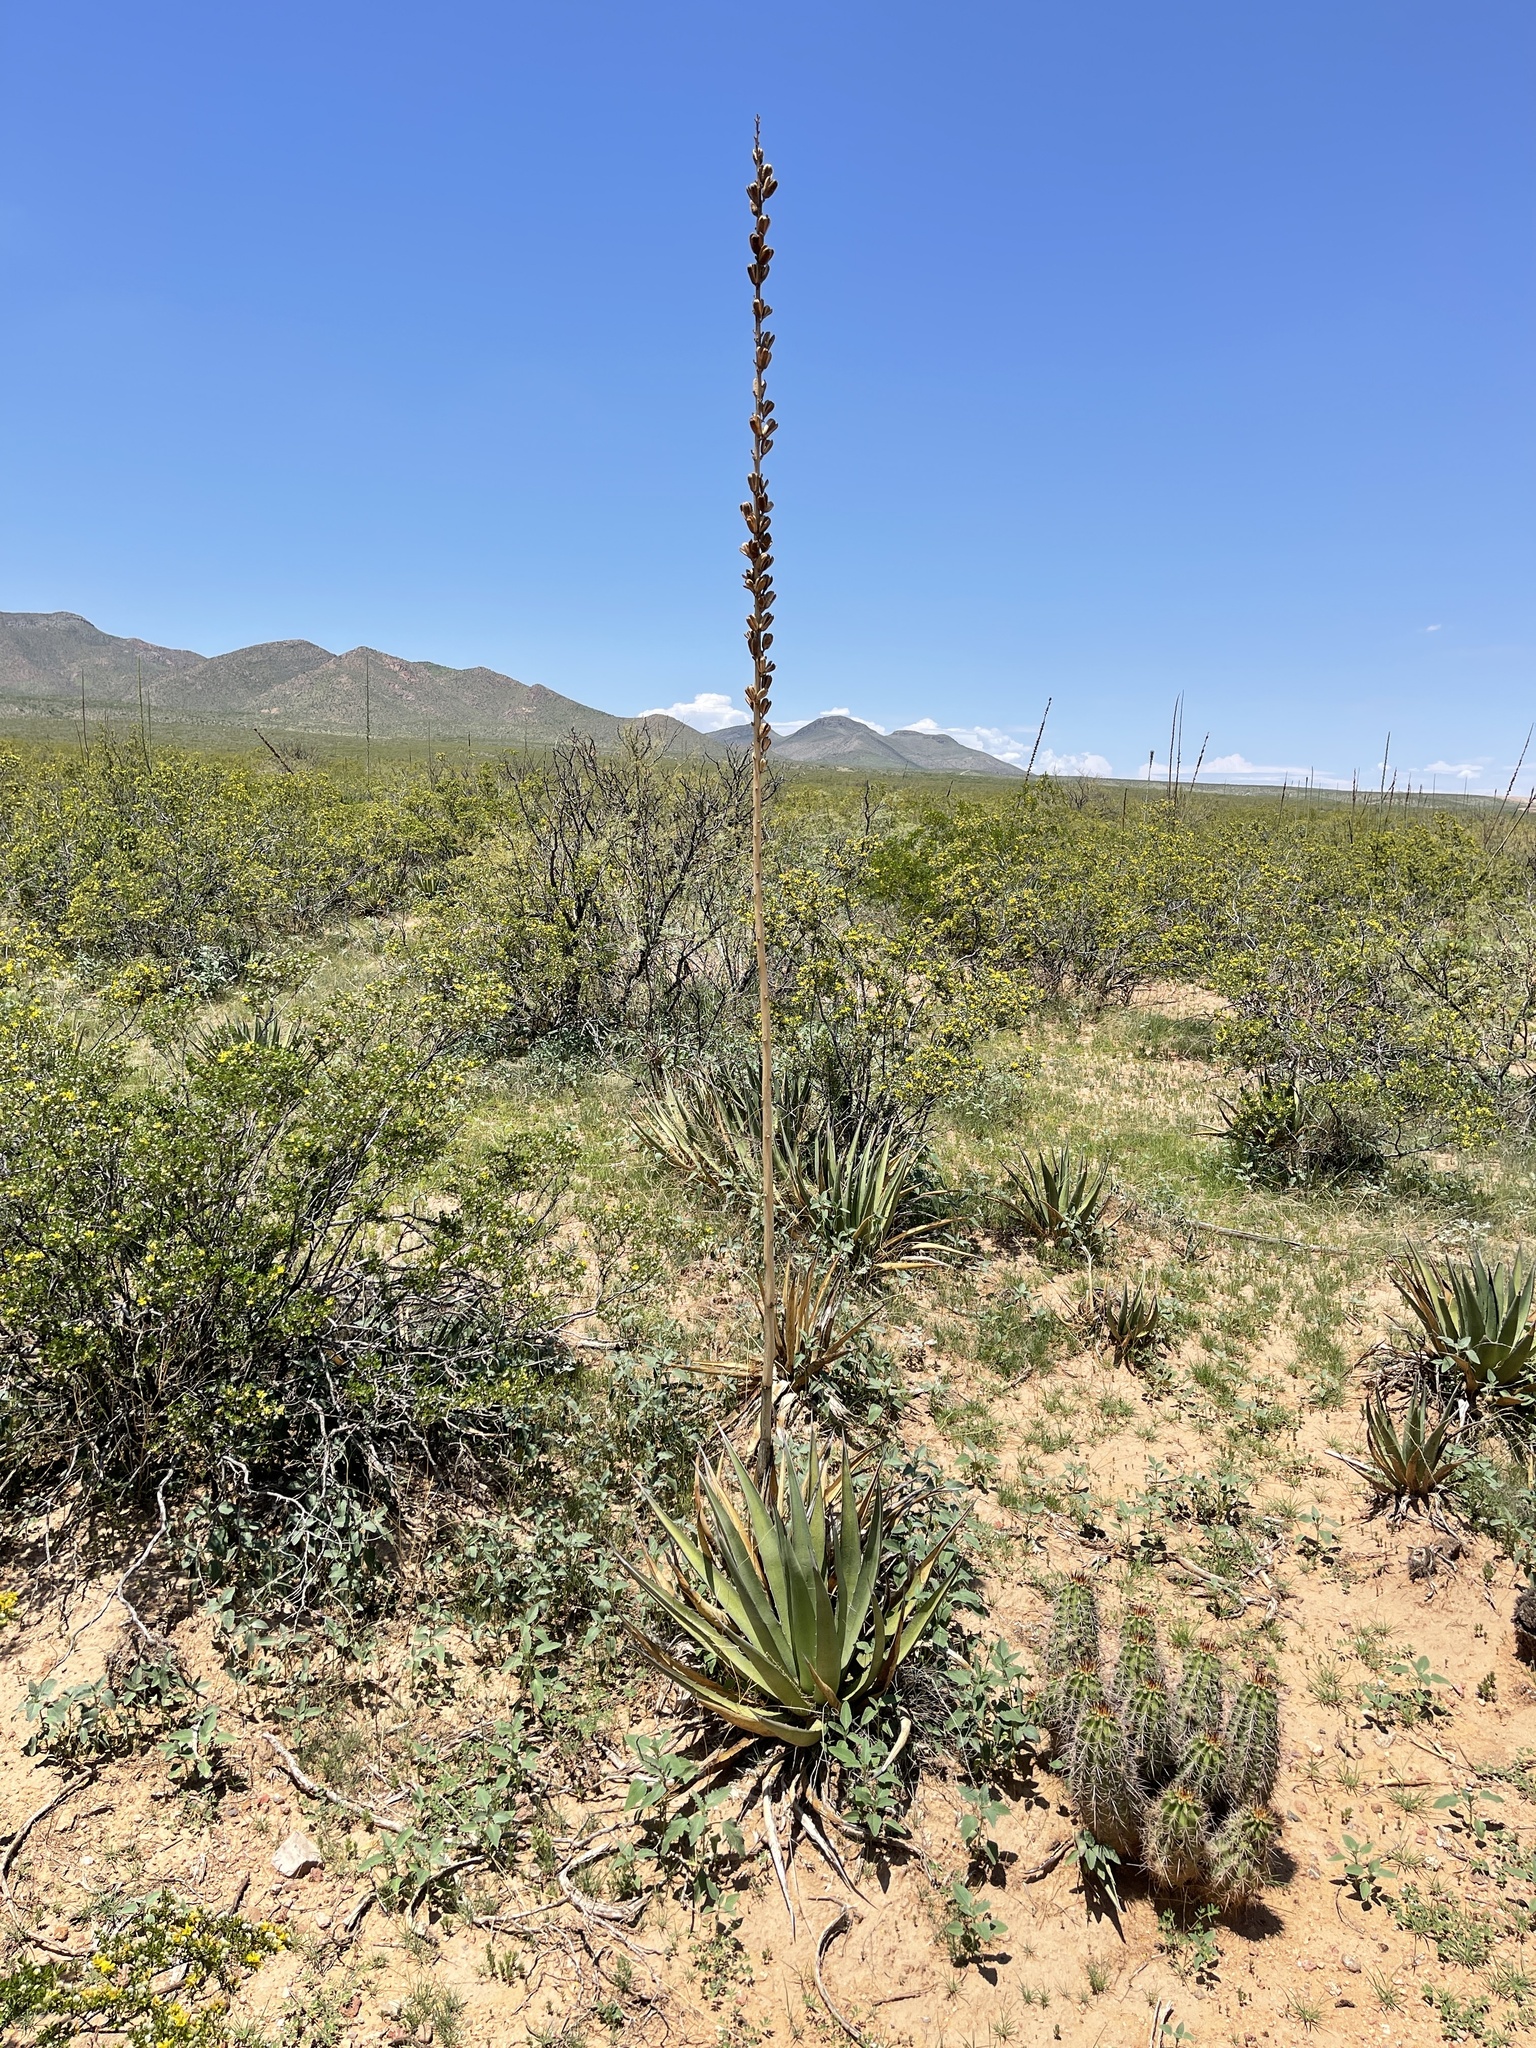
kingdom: Plantae
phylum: Tracheophyta
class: Magnoliopsida
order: Caryophyllales
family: Cactaceae
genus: Echinocereus
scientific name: Echinocereus coccineus
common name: Scarlet hedgehog cactus
